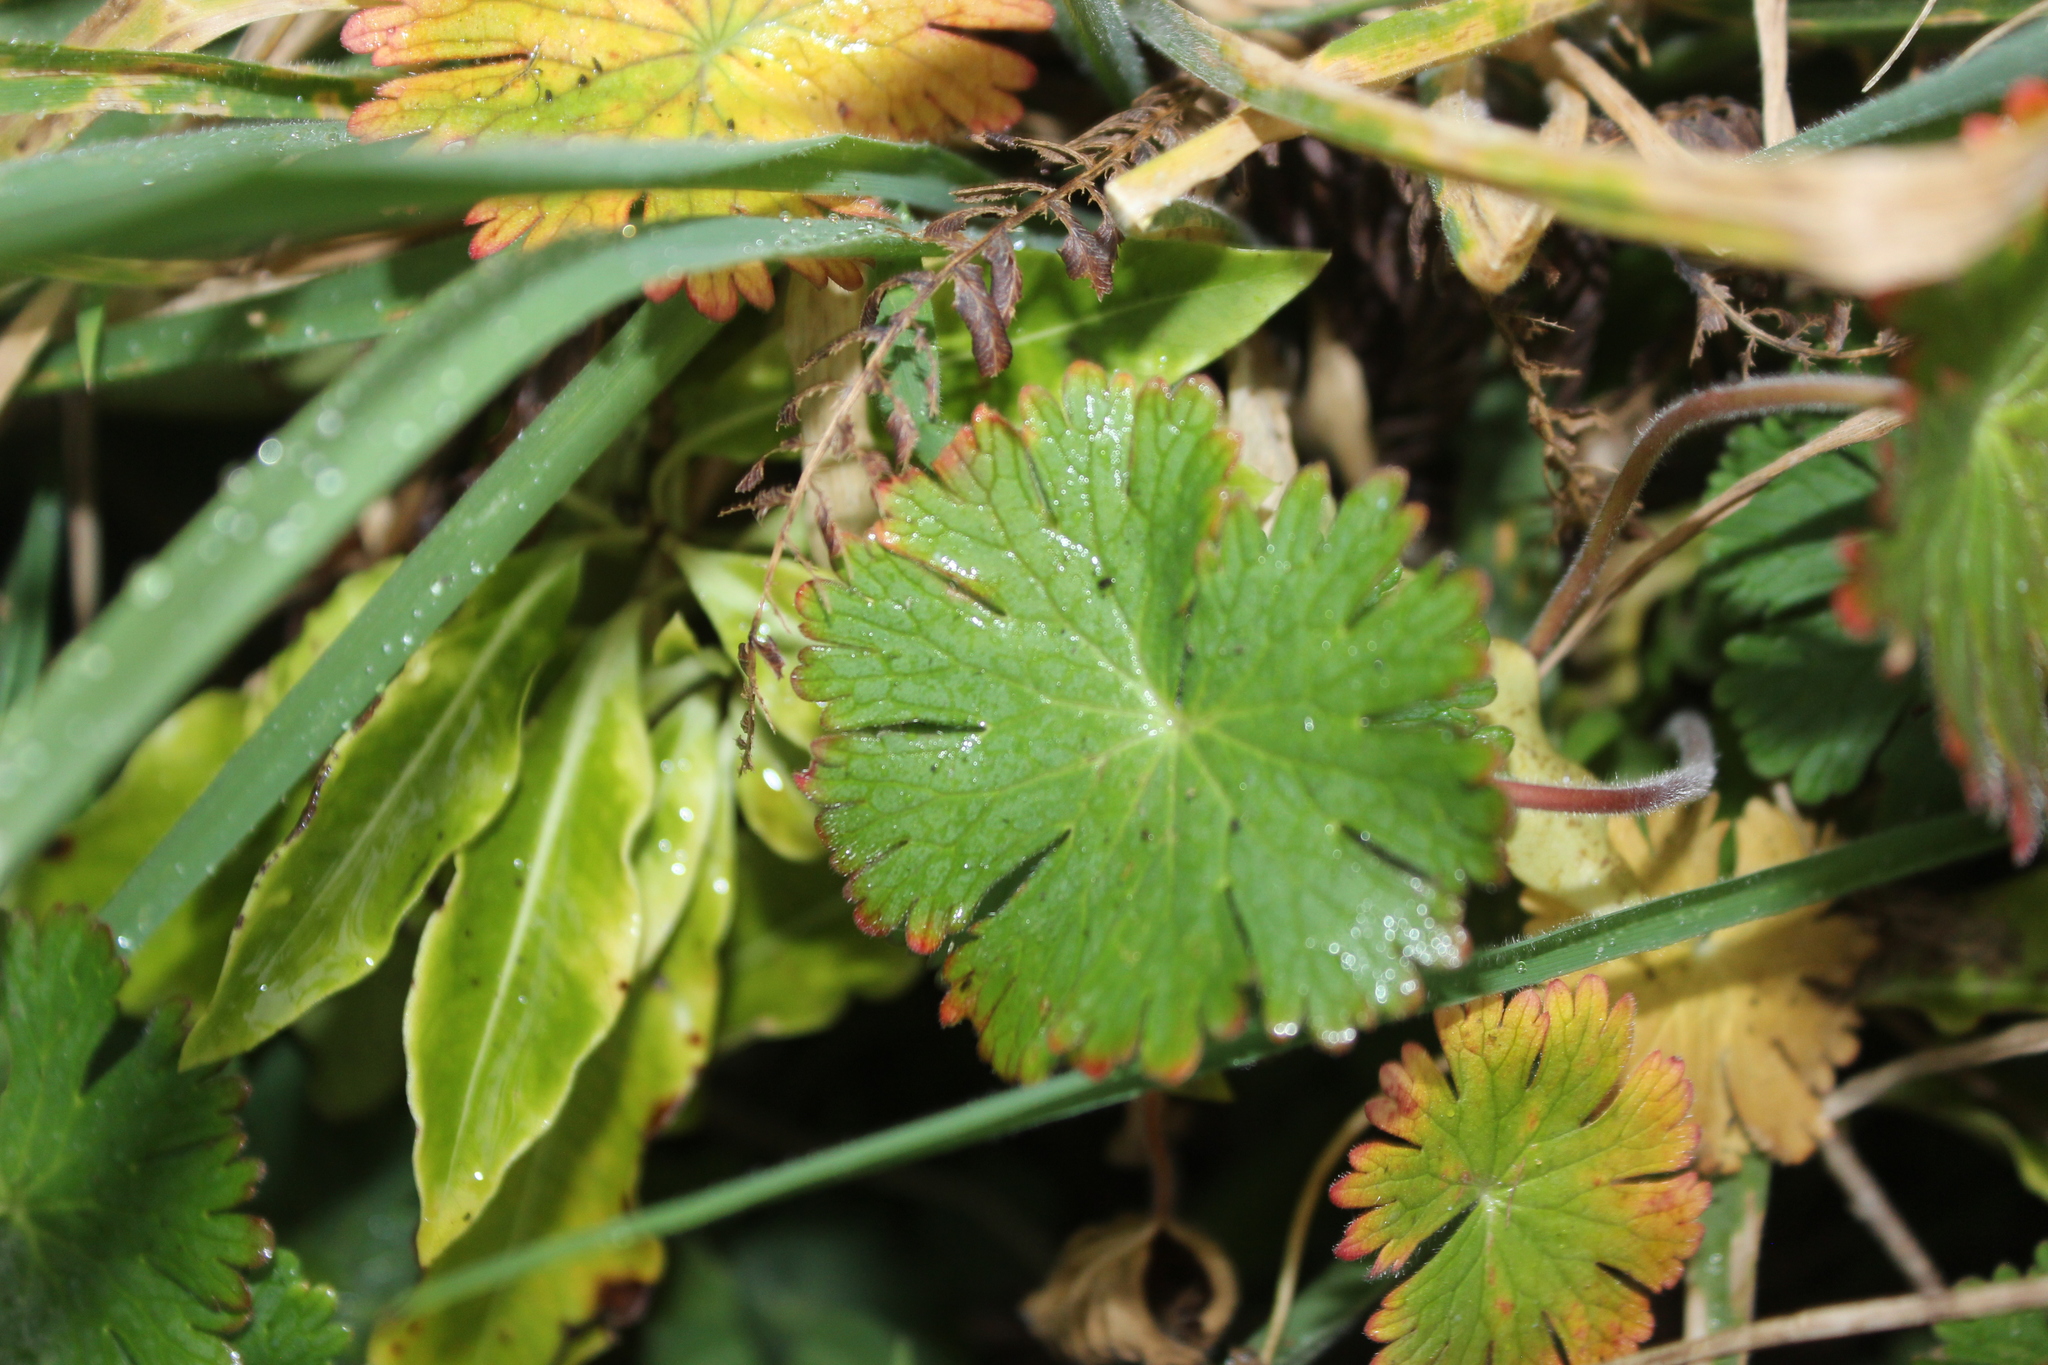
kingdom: Plantae
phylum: Tracheophyta
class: Magnoliopsida
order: Geraniales
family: Geraniaceae
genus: Geranium
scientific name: Geranium molle
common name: Dove's-foot crane's-bill
